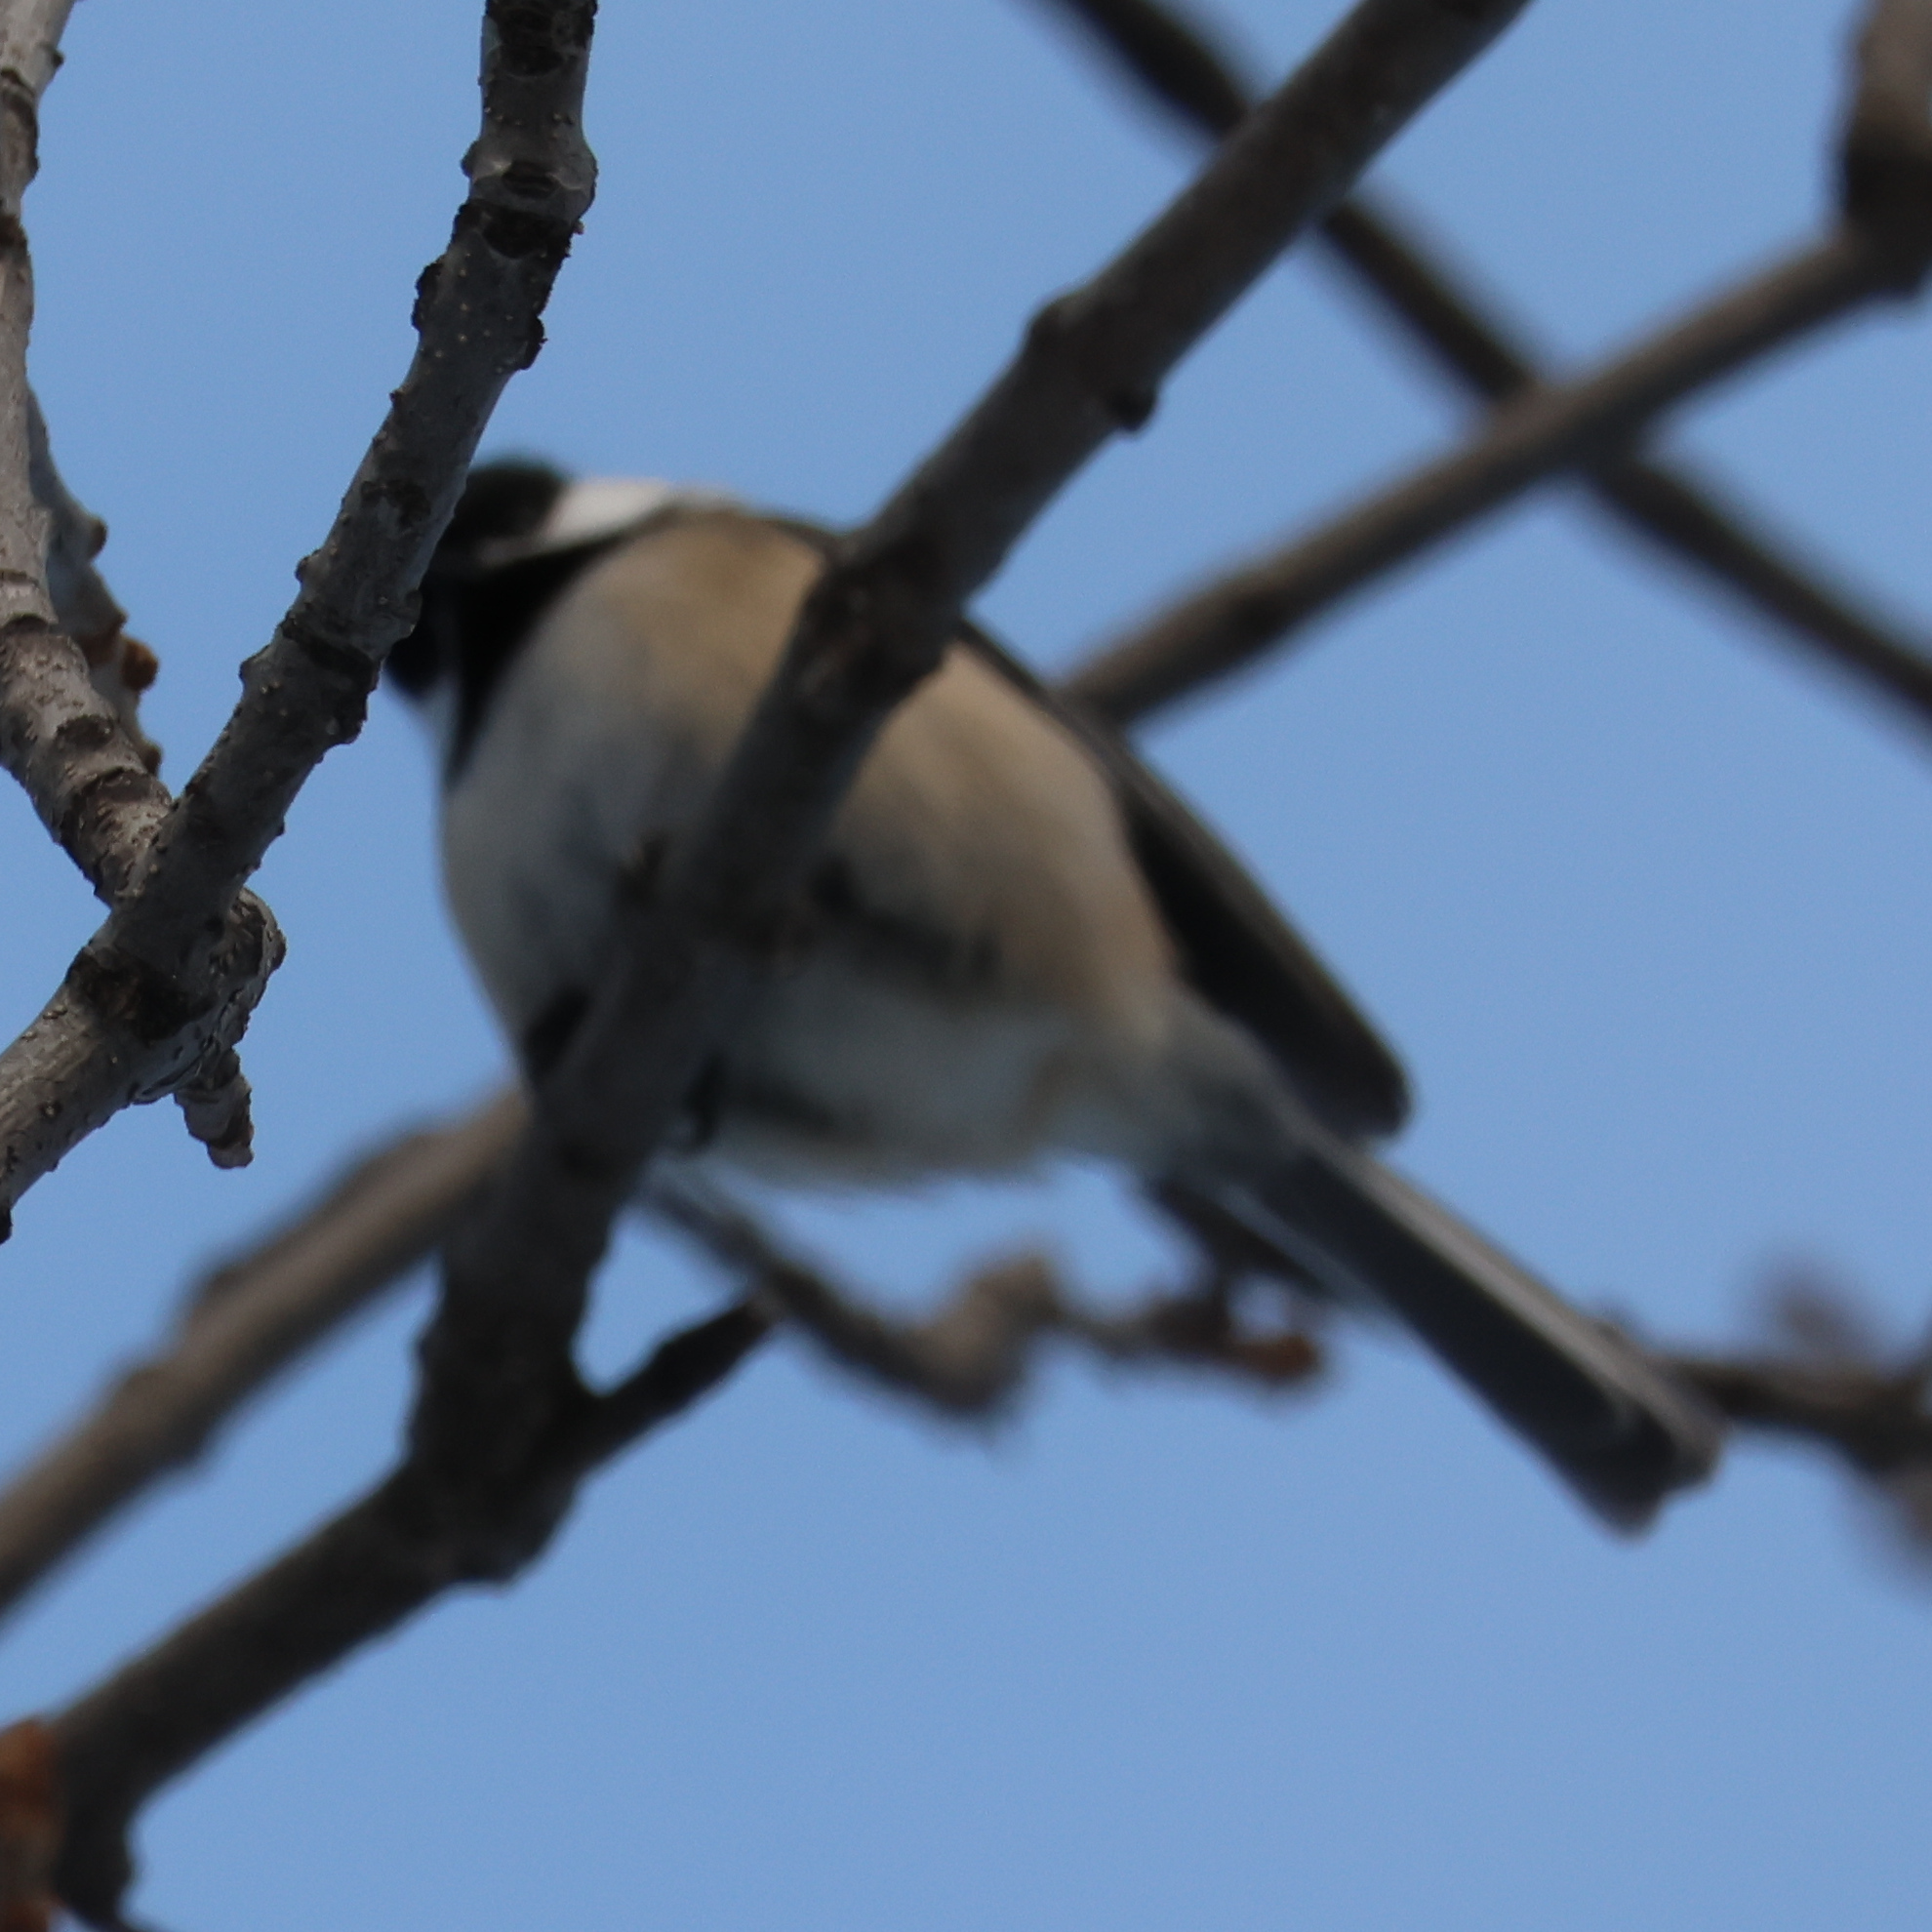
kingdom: Animalia
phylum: Chordata
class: Aves
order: Passeriformes
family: Paridae
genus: Poecile
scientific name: Poecile atricapillus
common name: Black-capped chickadee
